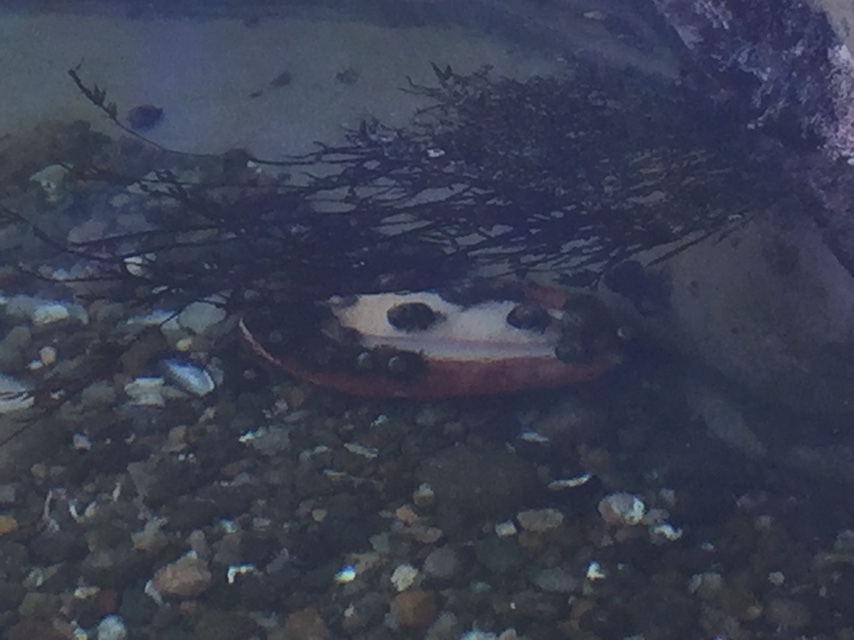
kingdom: Animalia
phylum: Mollusca
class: Polyplacophora
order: Chitonida
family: Acanthochitonidae
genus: Cryptochiton
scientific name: Cryptochiton stelleri
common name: Giant pacific chiton
